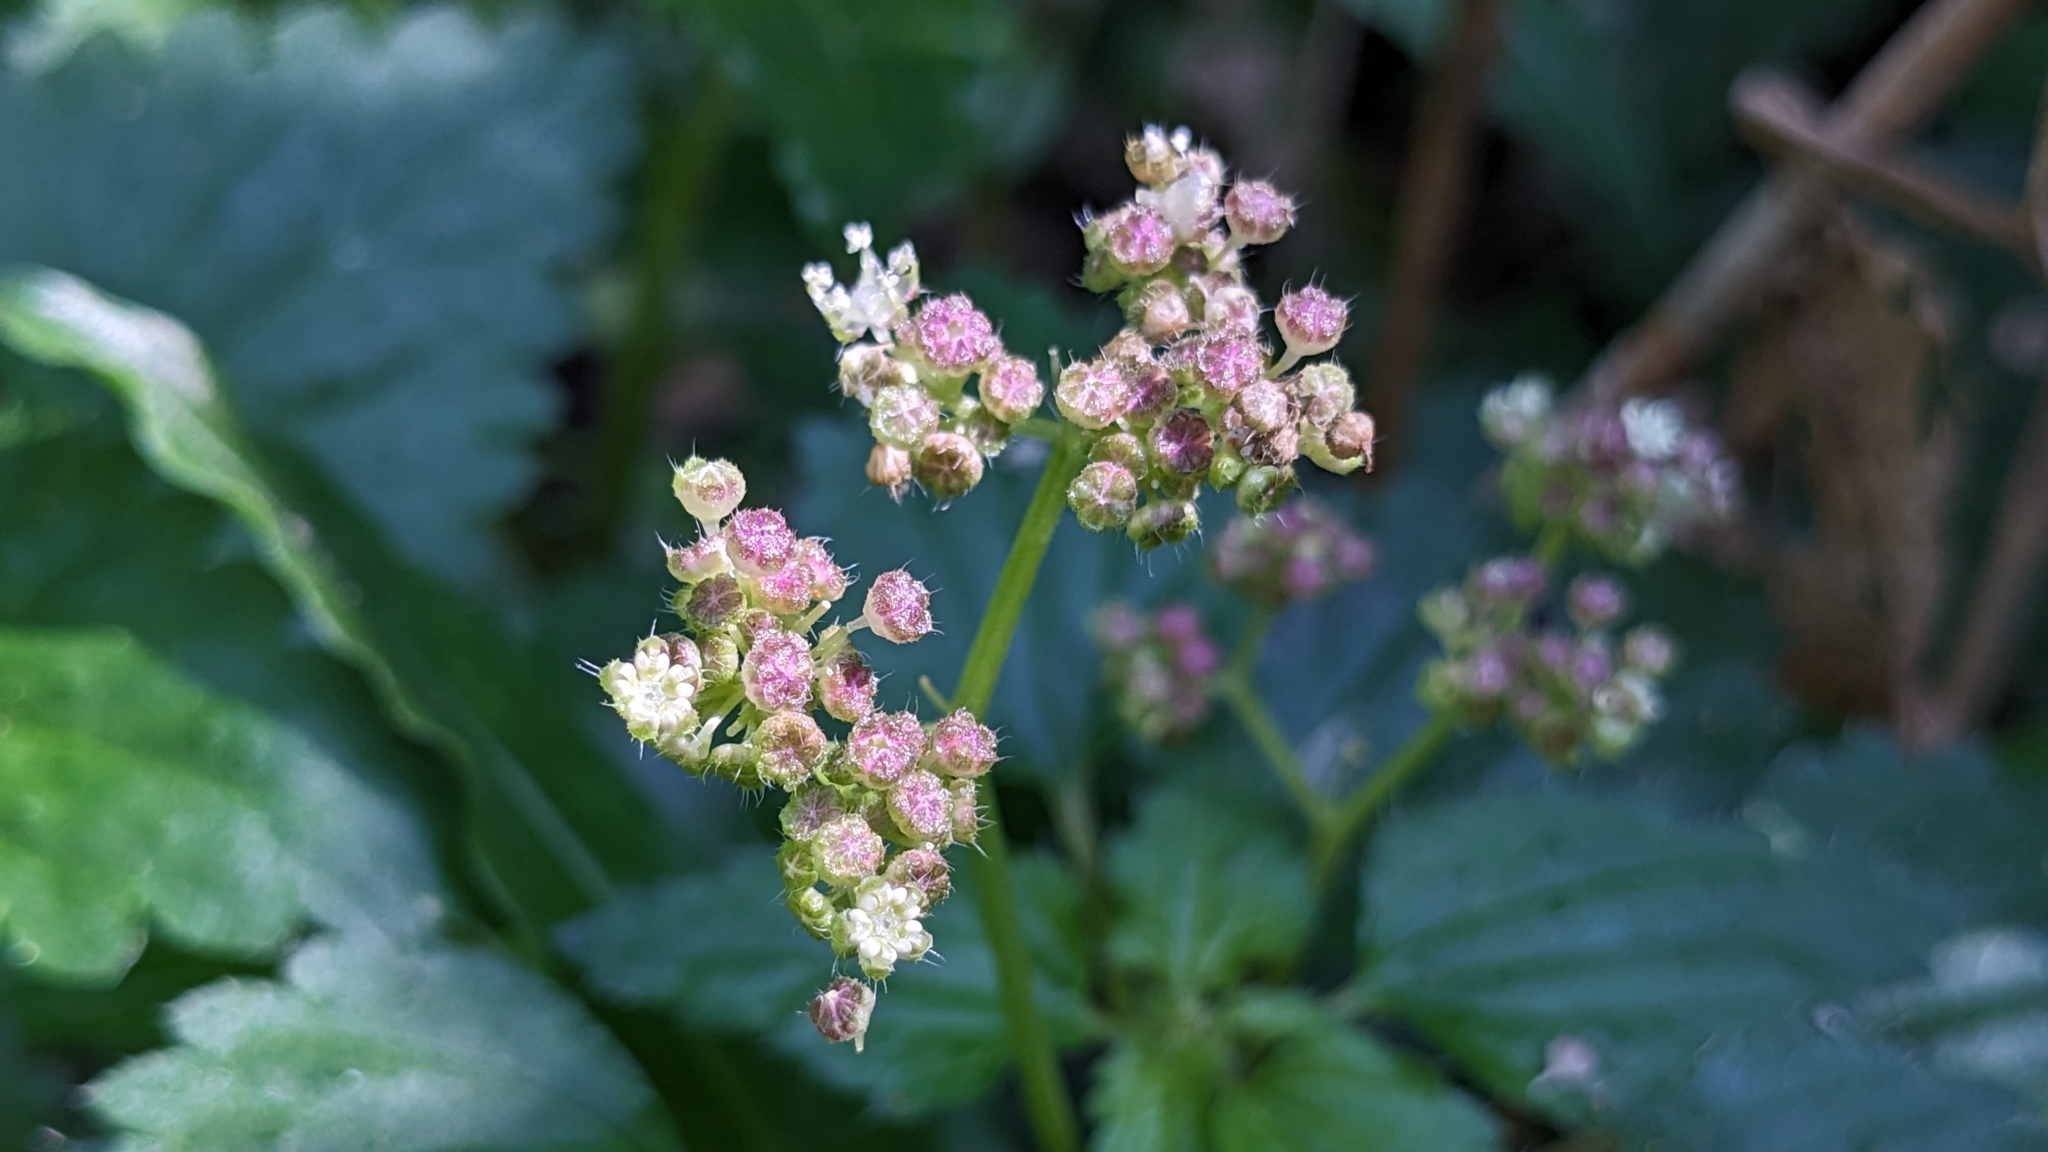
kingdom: Plantae
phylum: Tracheophyta
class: Magnoliopsida
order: Rosales
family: Urticaceae
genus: Nanocnide
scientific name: Nanocnide japonica
